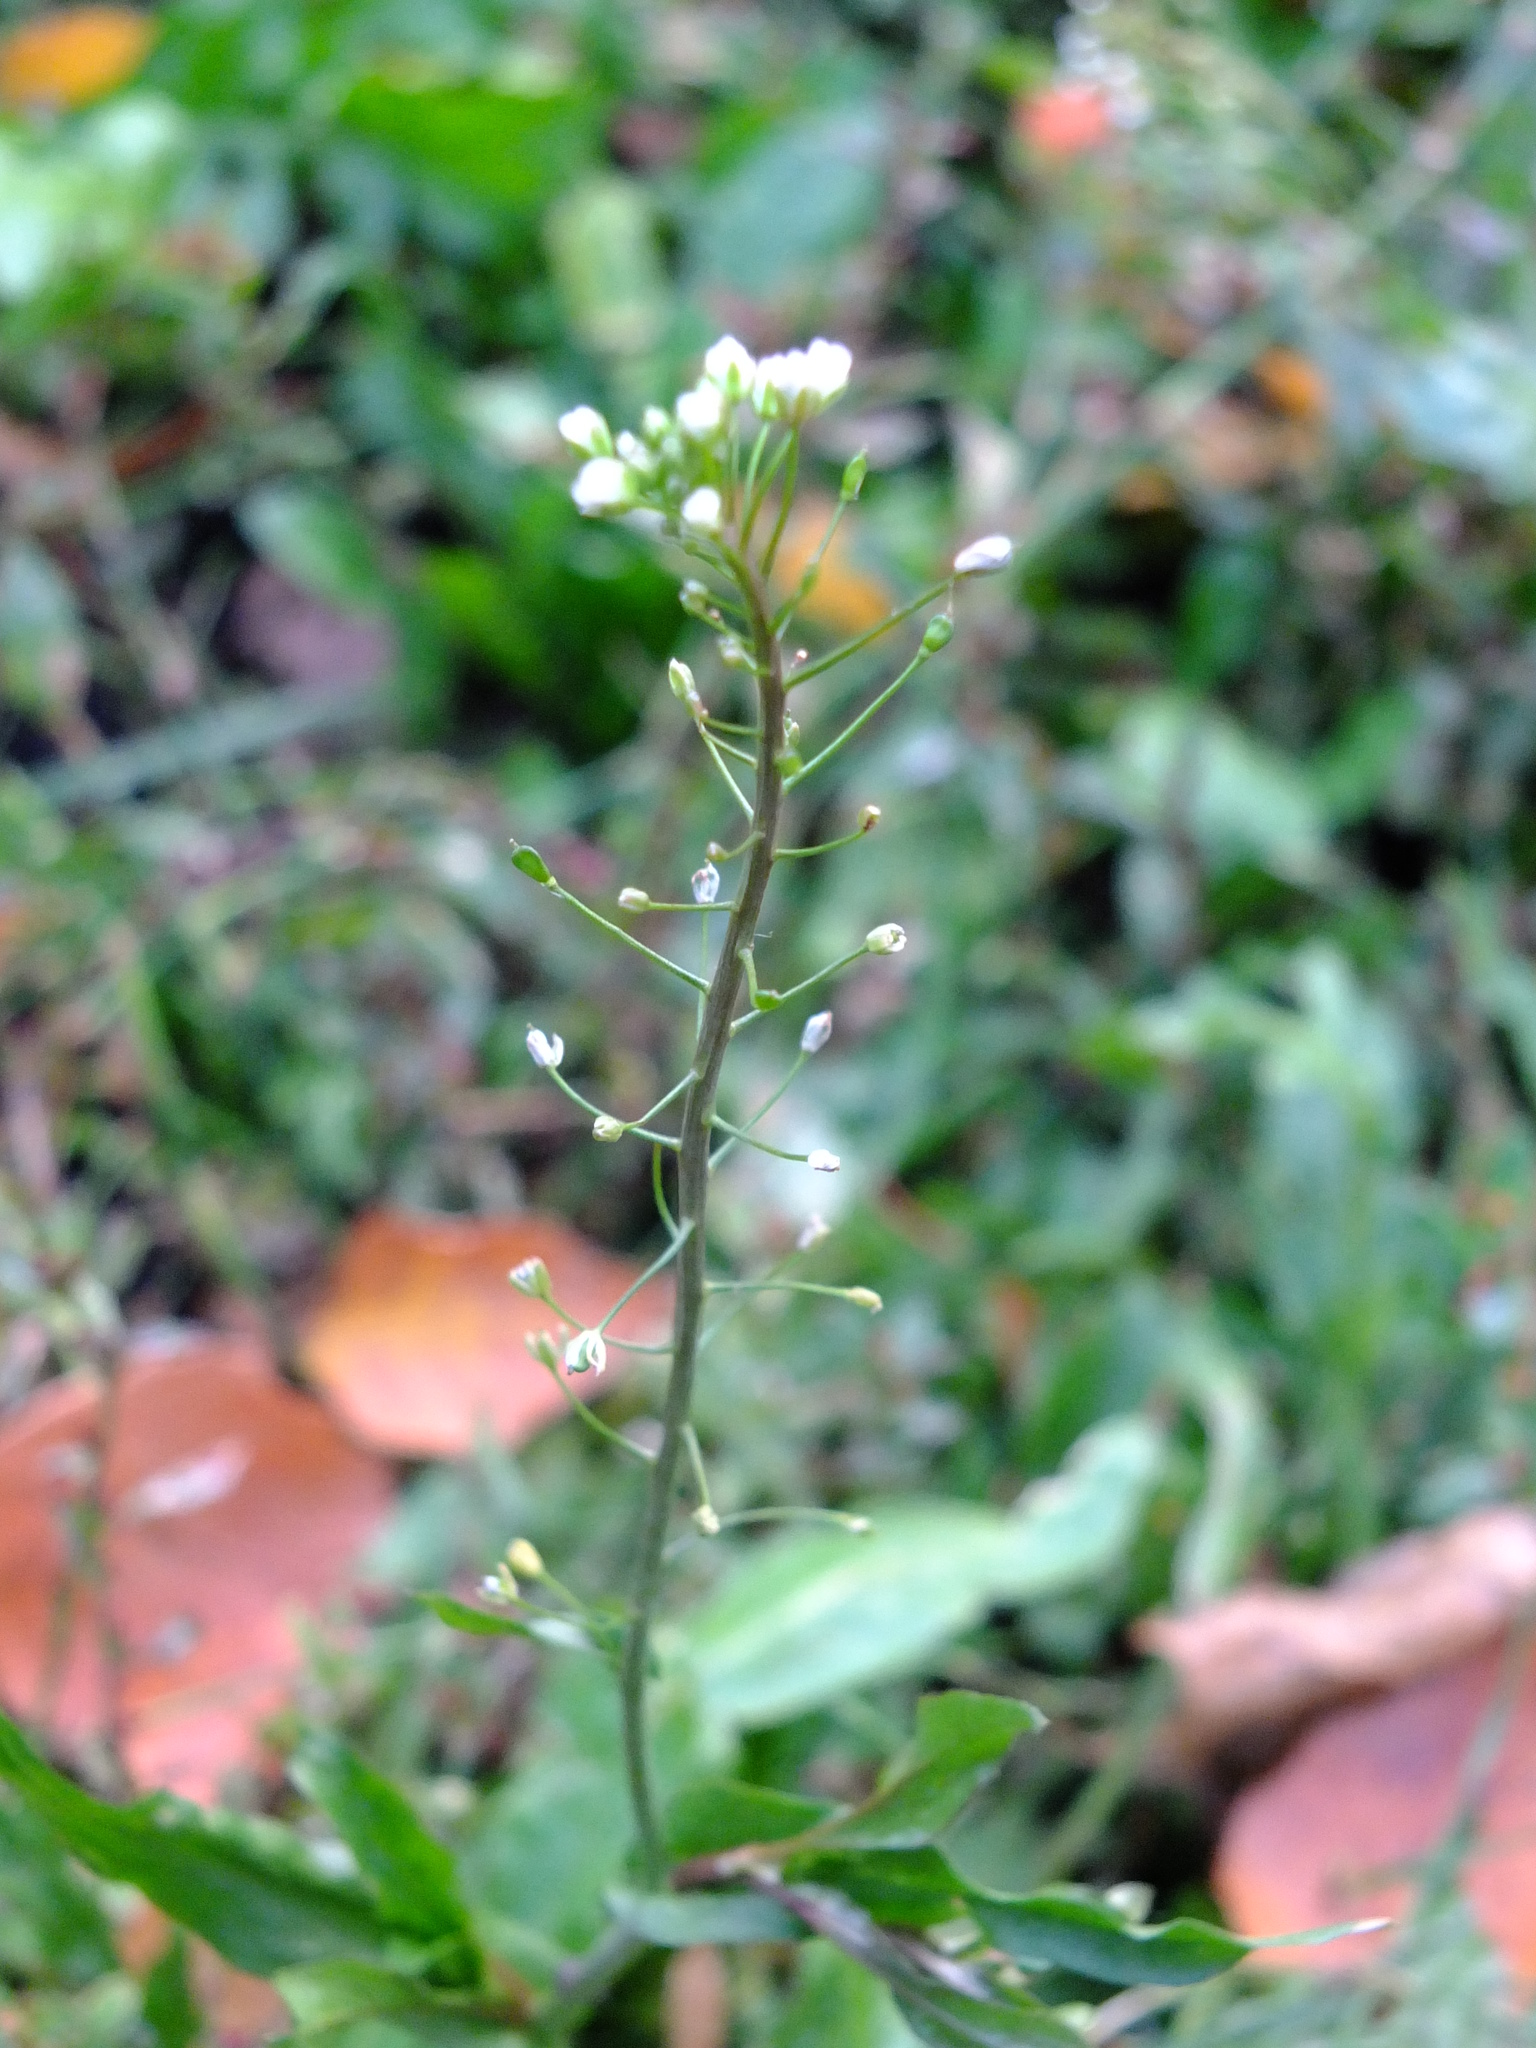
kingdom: Plantae
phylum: Tracheophyta
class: Magnoliopsida
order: Brassicales
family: Brassicaceae
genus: Capsella
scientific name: Capsella bursa-pastoris
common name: Shepherd's purse
